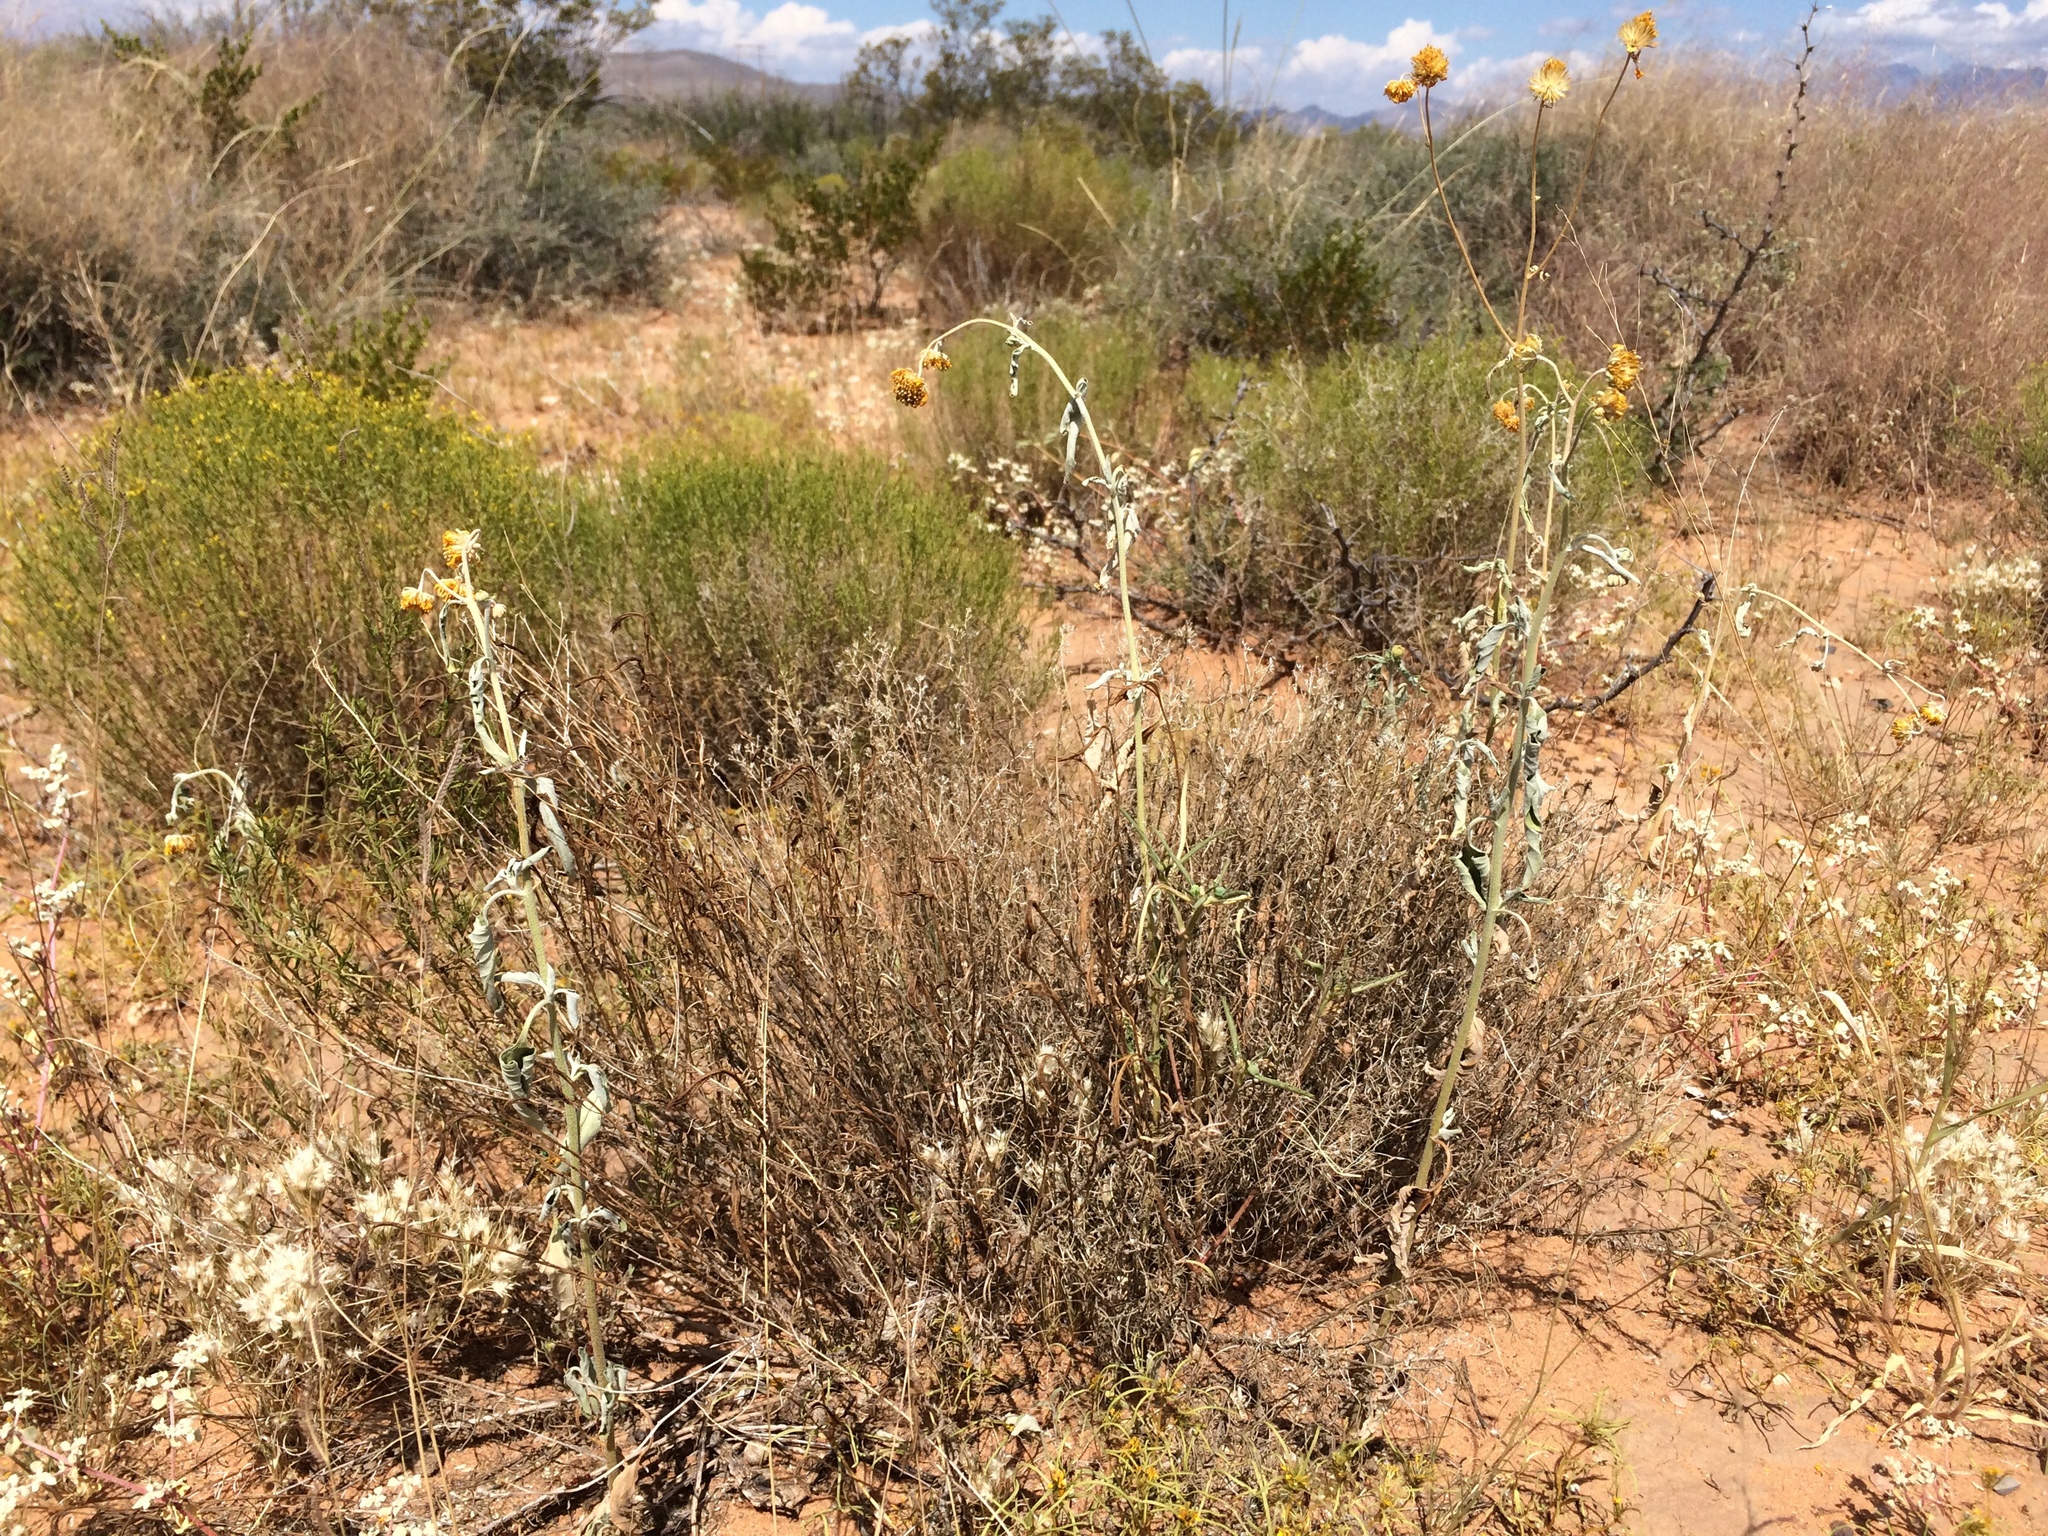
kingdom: Plantae
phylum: Tracheophyta
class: Magnoliopsida
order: Asterales
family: Asteraceae
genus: Verbesina
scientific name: Verbesina encelioides
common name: Golden crownbeard
